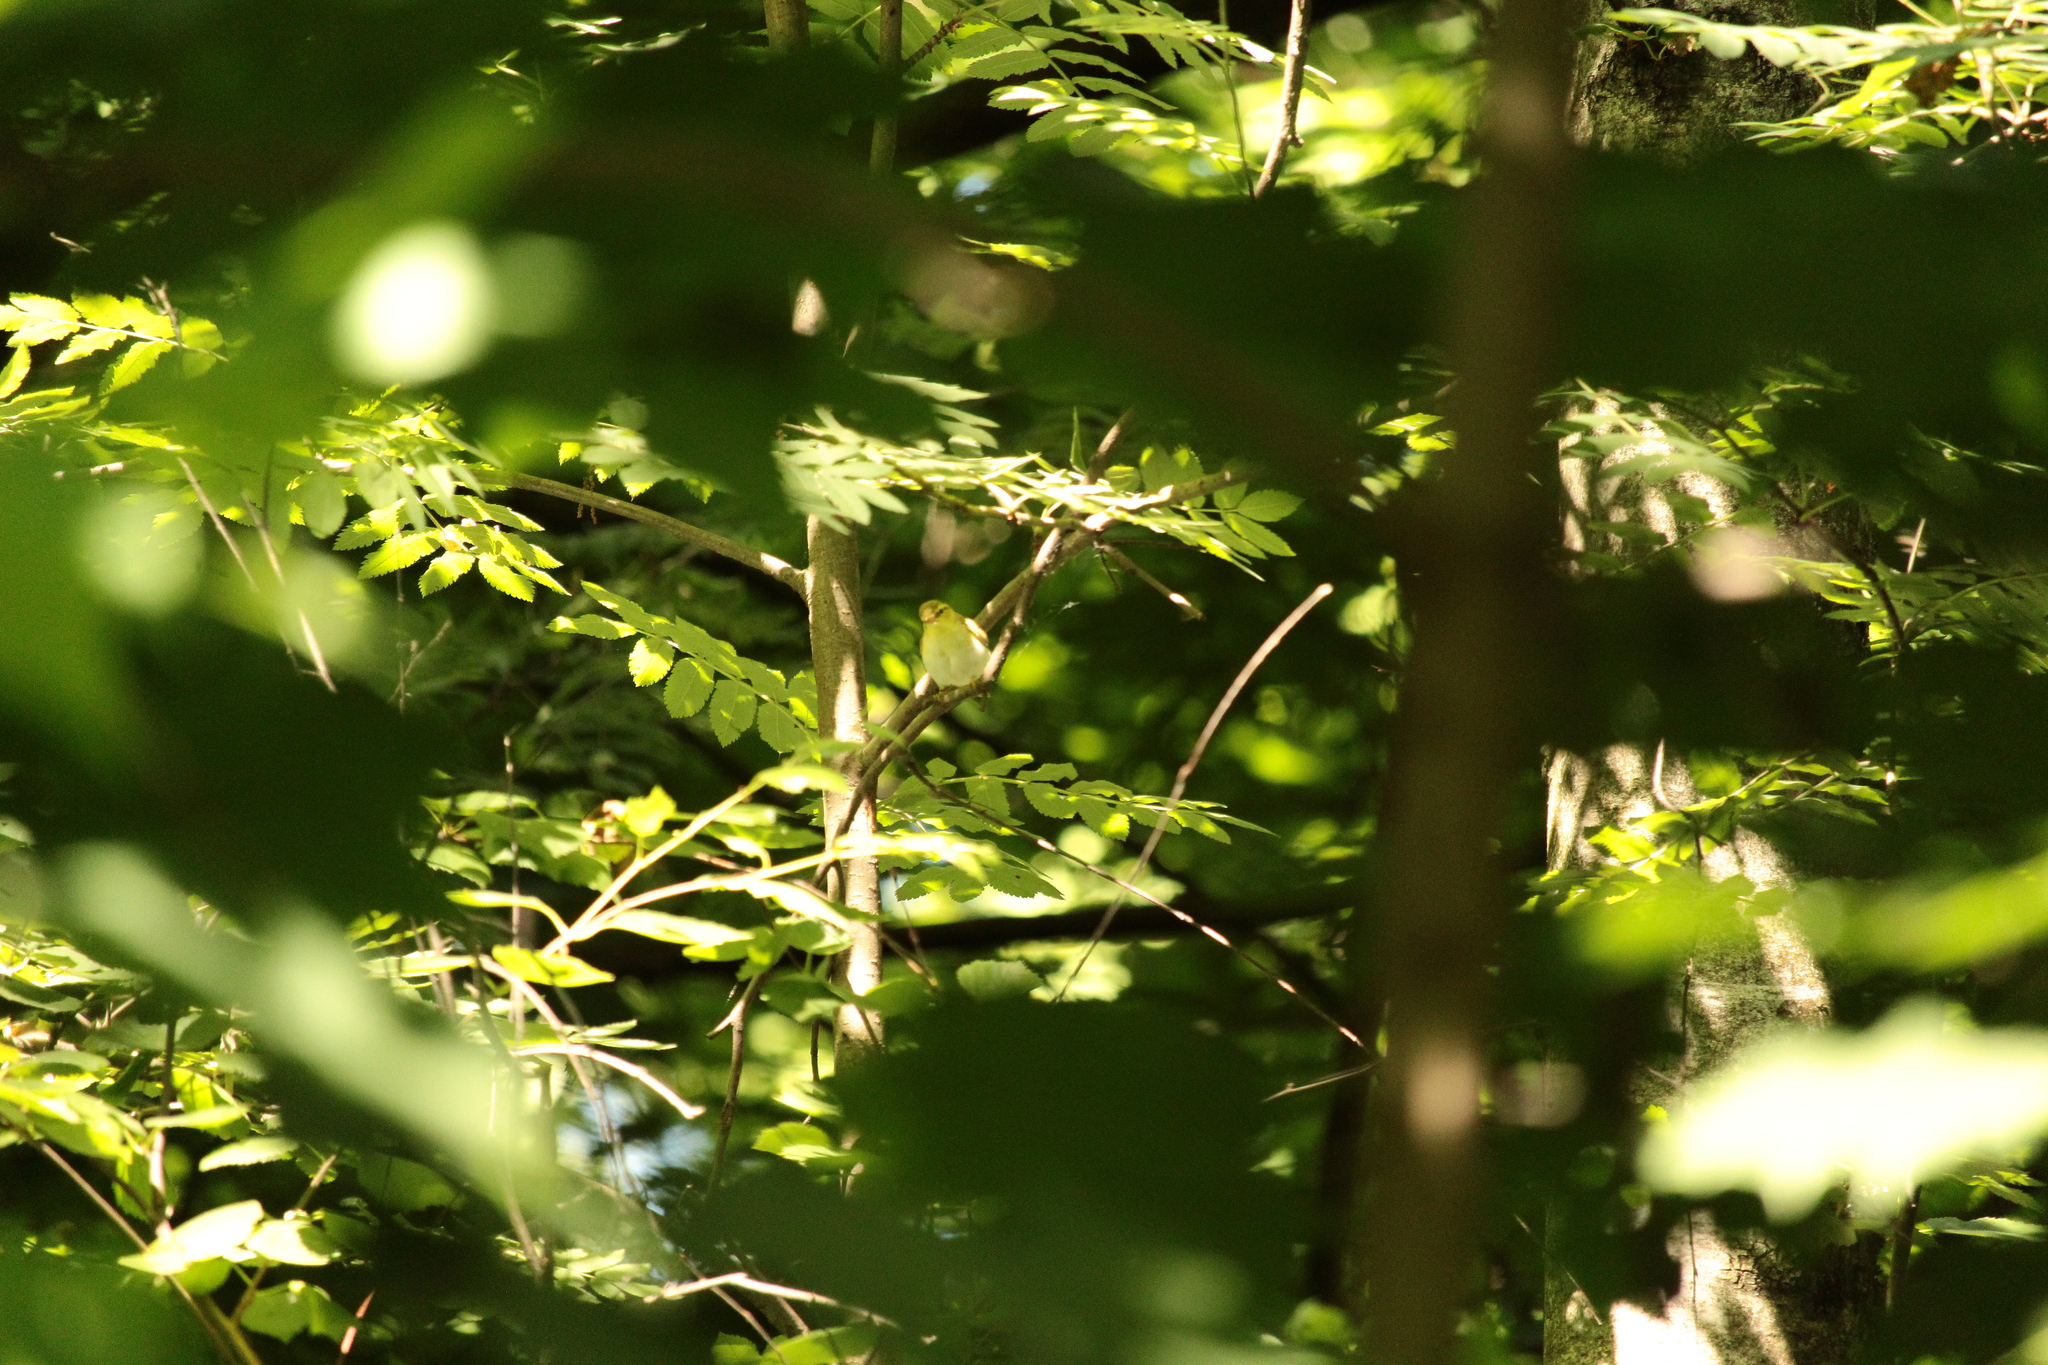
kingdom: Animalia
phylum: Chordata
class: Aves
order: Passeriformes
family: Phylloscopidae
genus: Phylloscopus
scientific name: Phylloscopus sibillatrix
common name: Wood warbler
